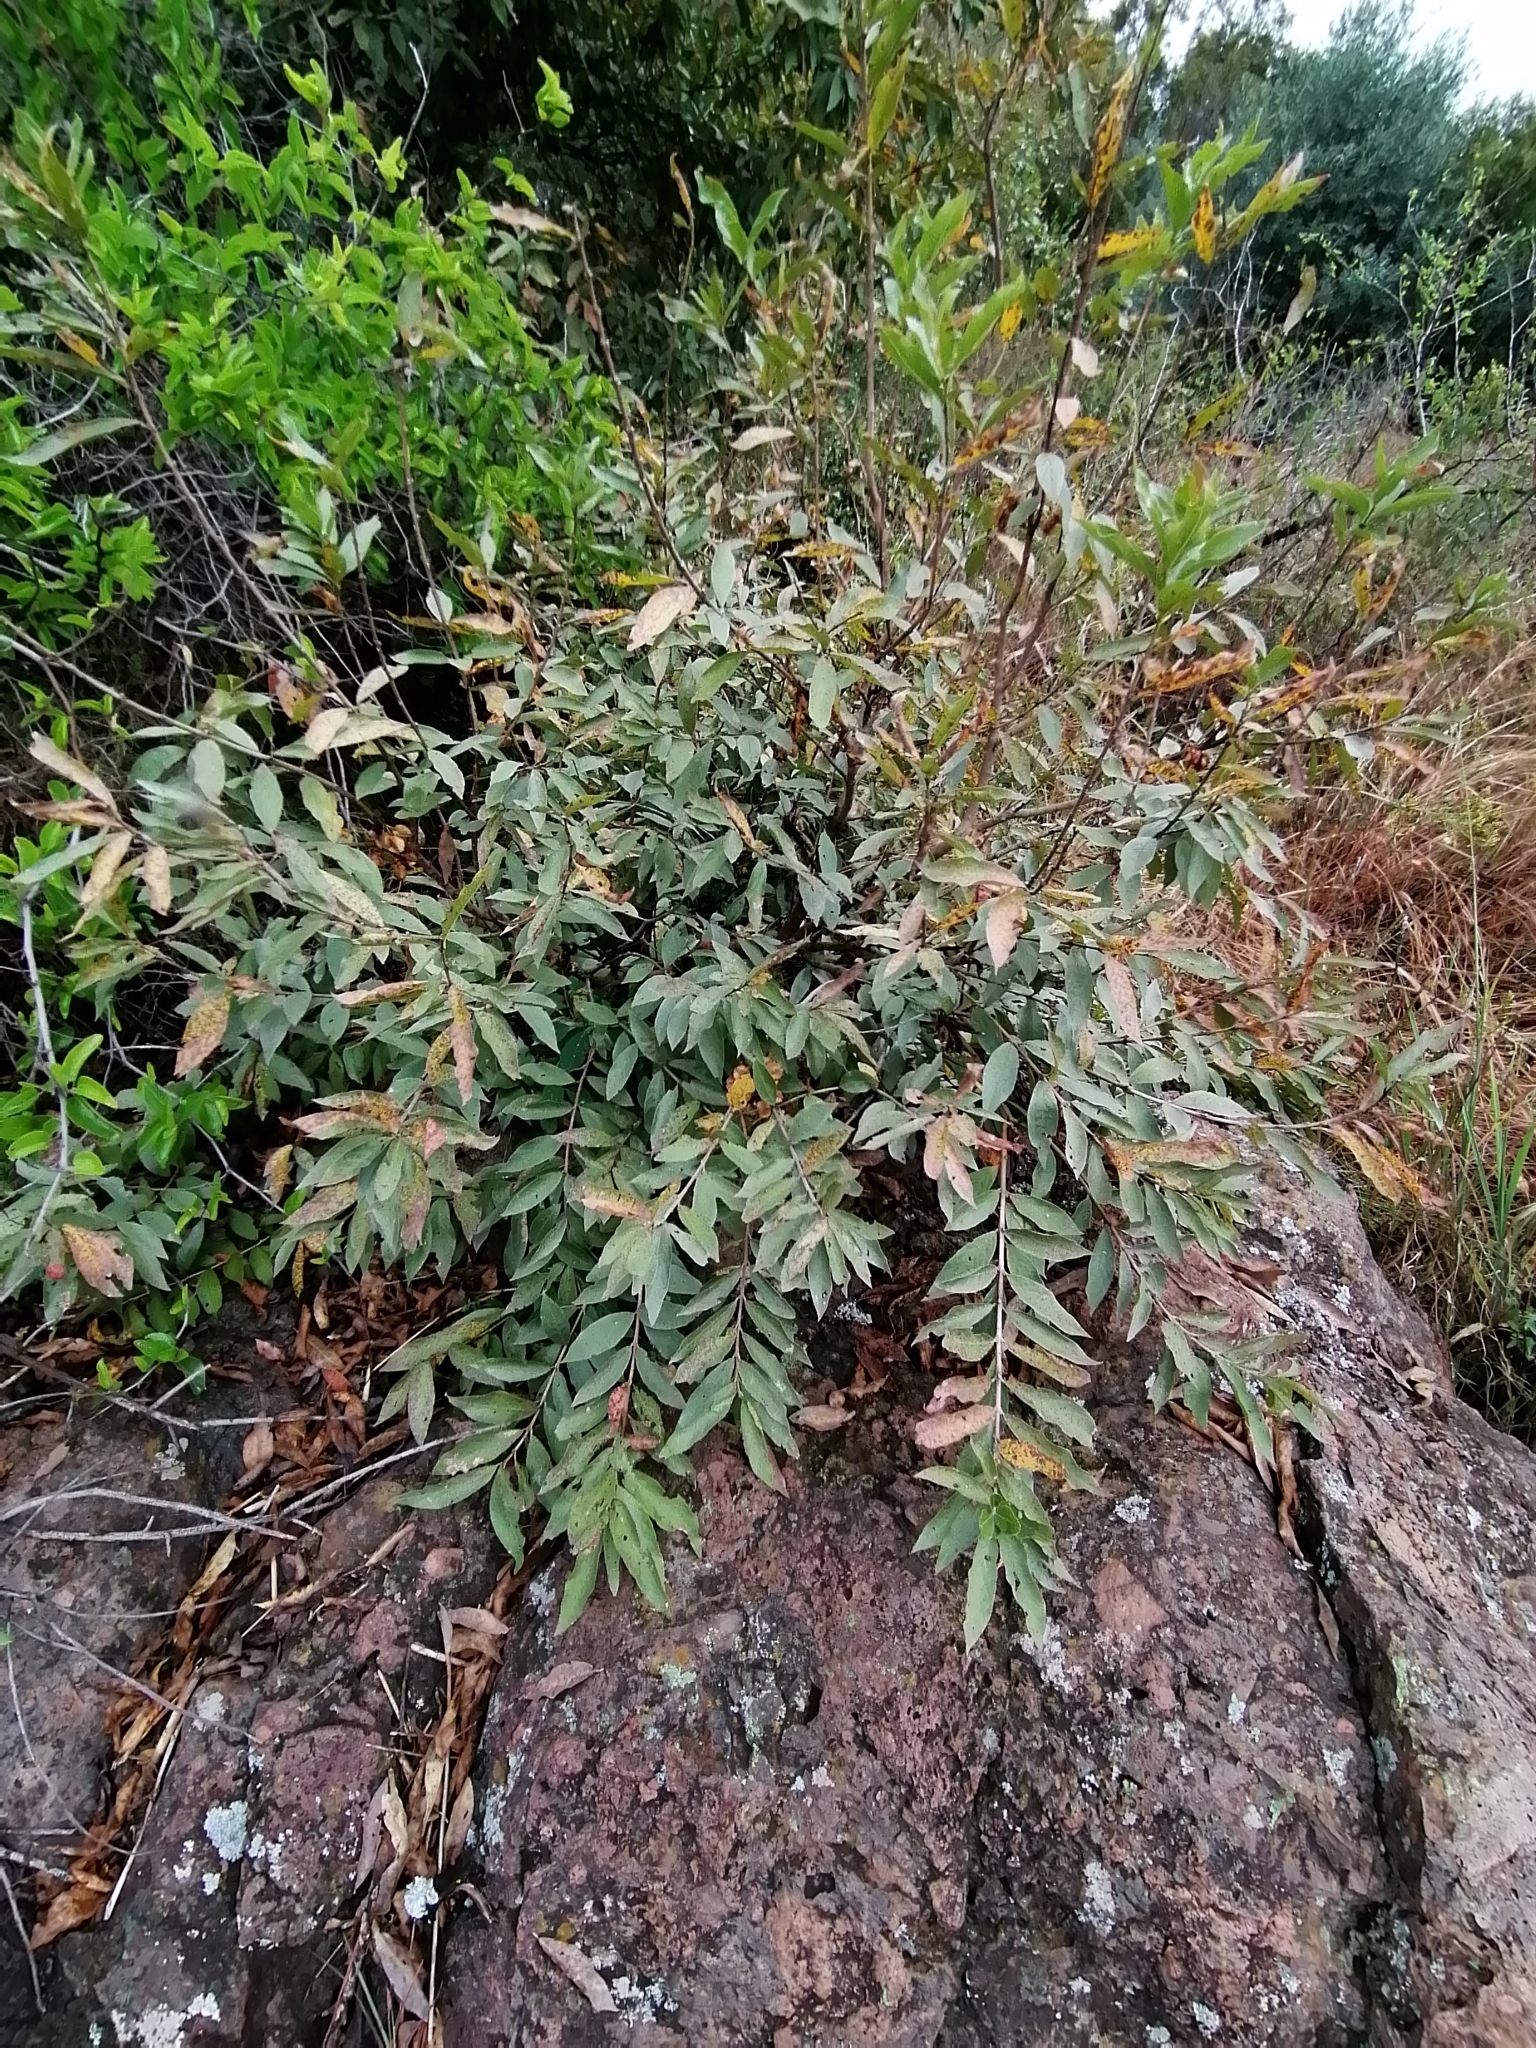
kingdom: Plantae
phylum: Tracheophyta
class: Magnoliopsida
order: Myrtales
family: Combretaceae
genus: Combretum
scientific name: Combretum erythrophyllum
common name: Bush-willow
